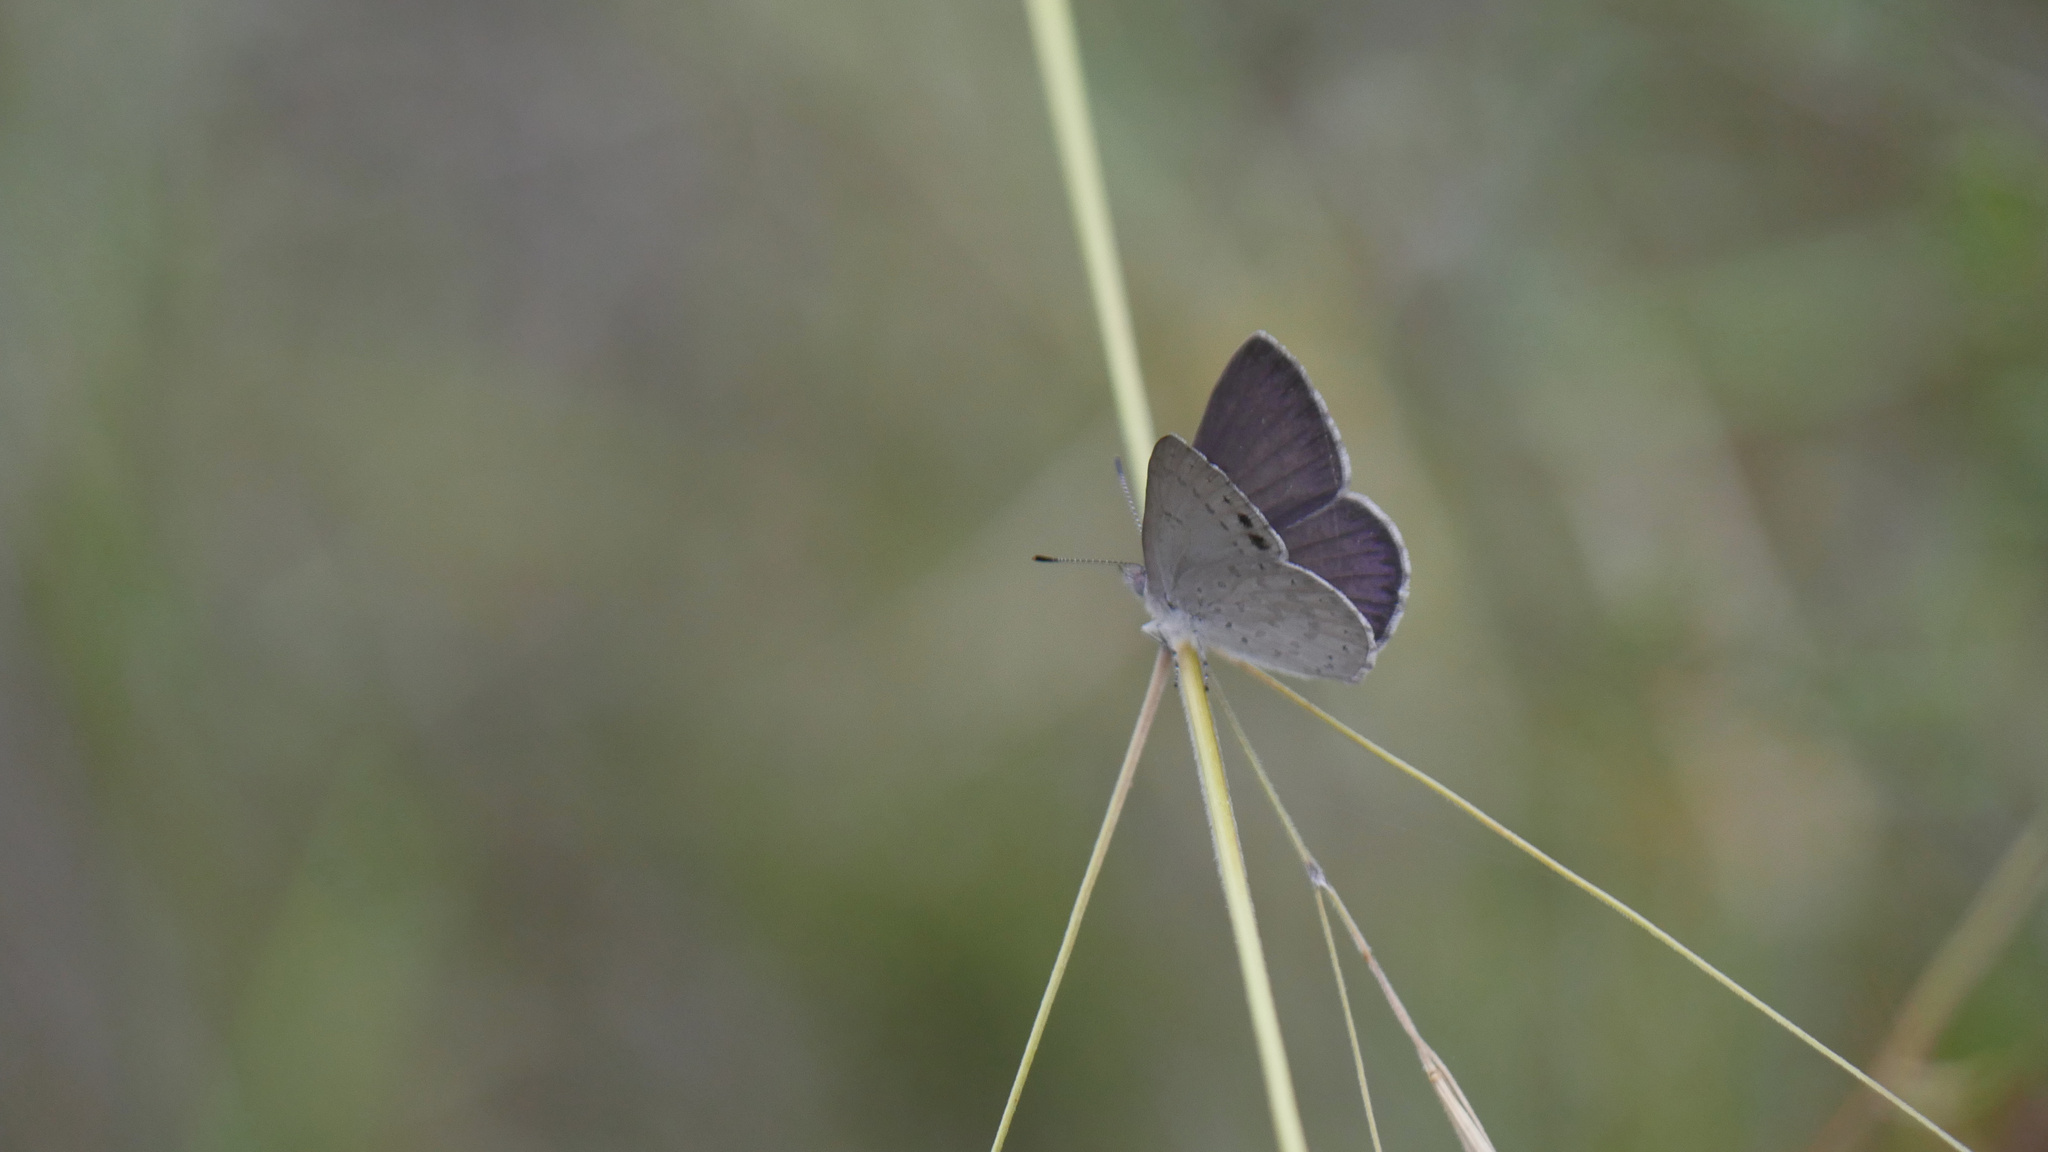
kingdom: Animalia
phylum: Arthropoda
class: Insecta
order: Lepidoptera
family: Lycaenidae
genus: Candalides
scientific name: Candalides
